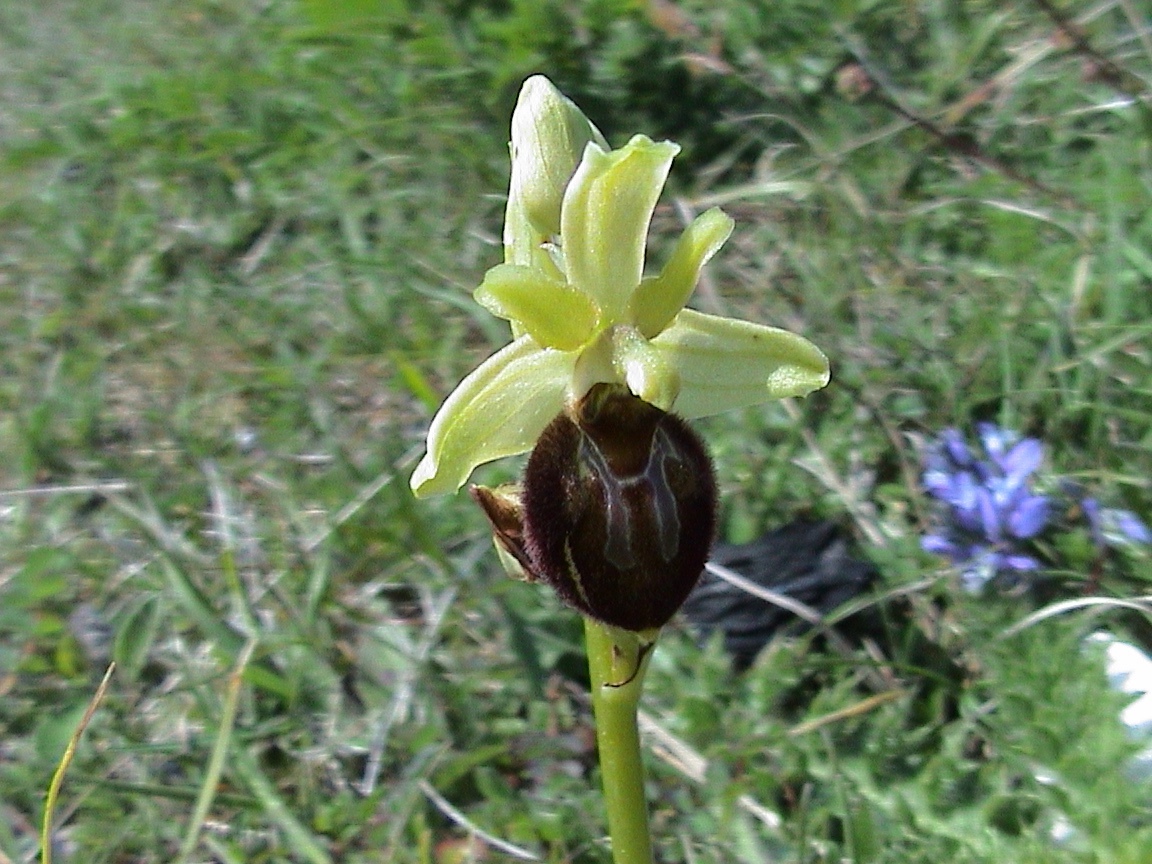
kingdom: Plantae
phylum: Tracheophyta
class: Liliopsida
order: Asparagales
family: Orchidaceae
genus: Ophrys
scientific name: Ophrys sphegodes
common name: Early spider-orchid
